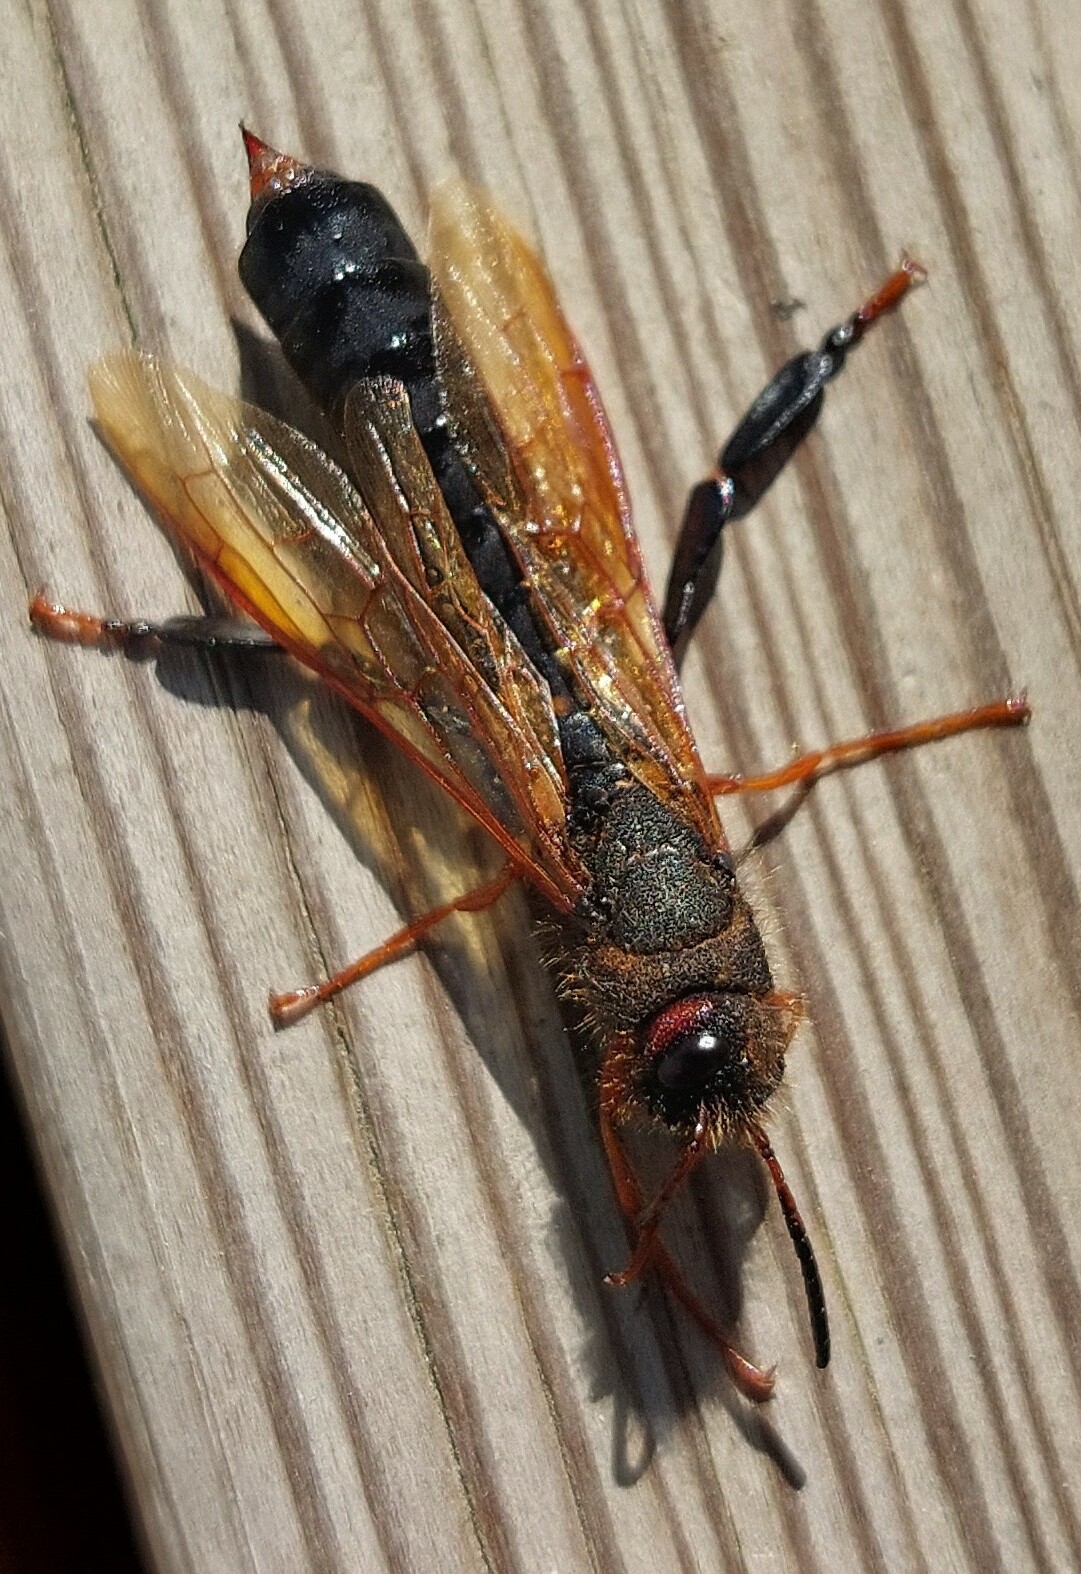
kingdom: Animalia
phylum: Arthropoda
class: Insecta
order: Hymenoptera
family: Siricidae
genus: Tremex
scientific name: Tremex fuscicornis
